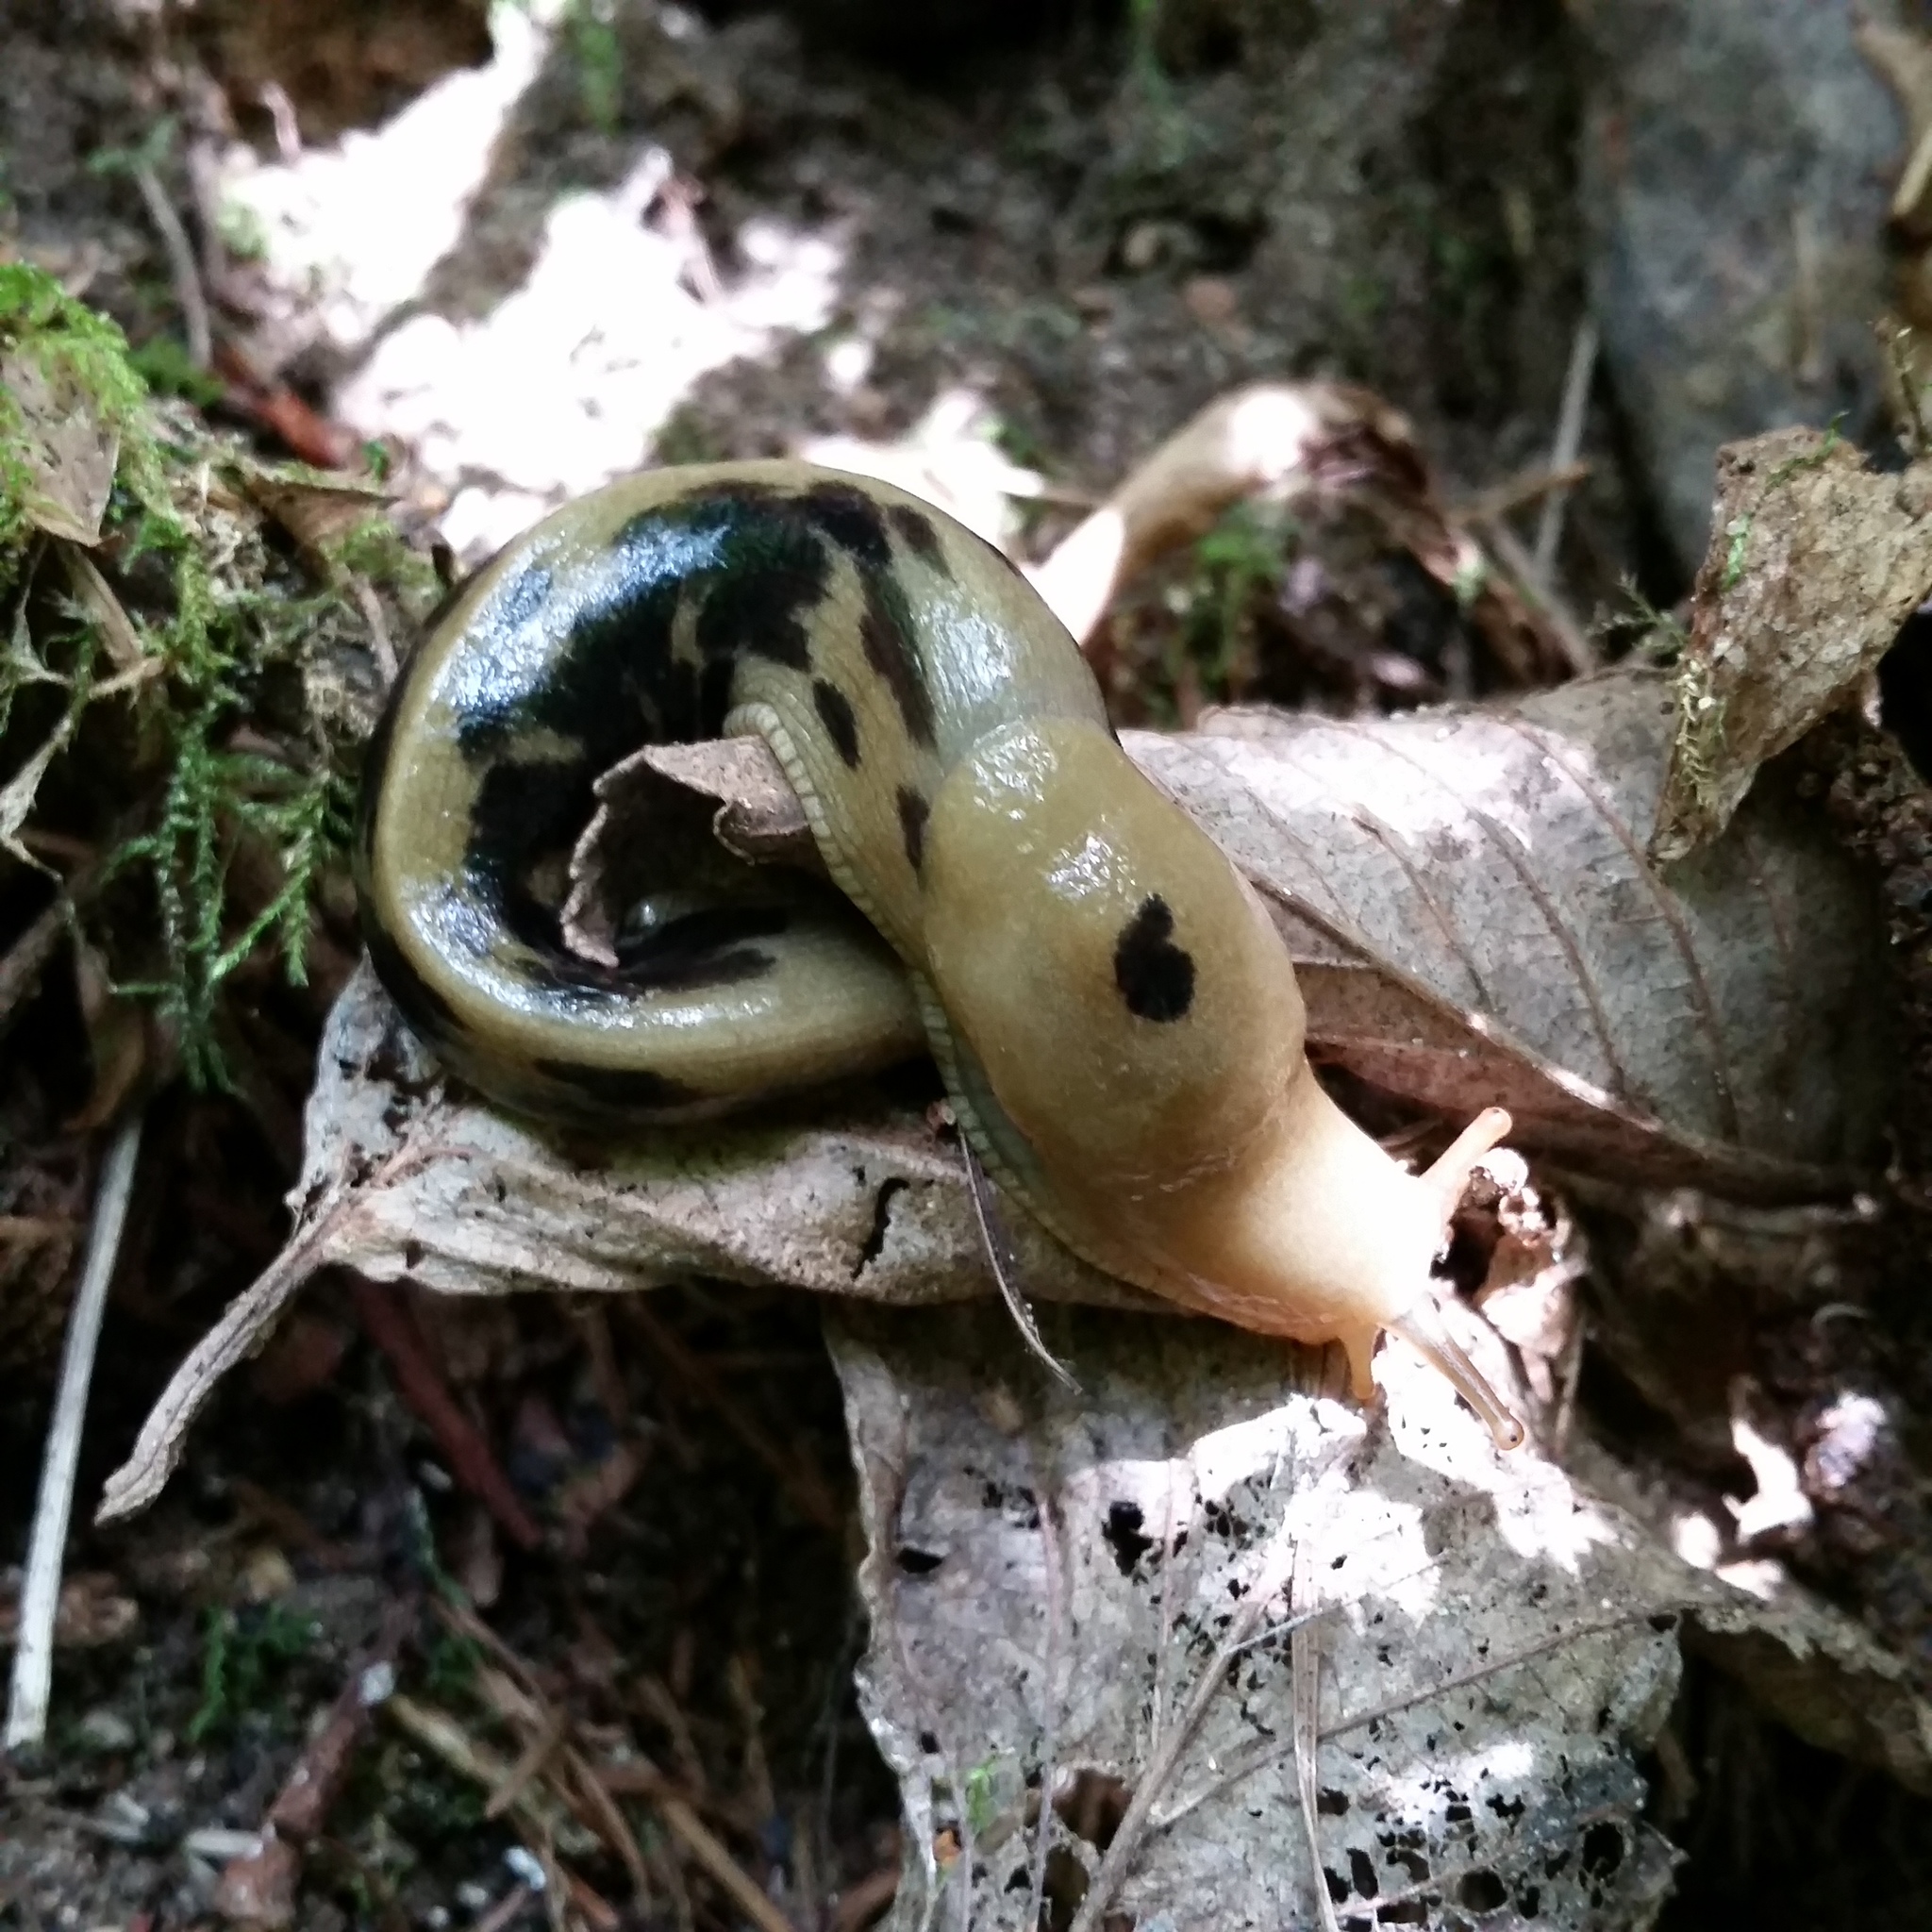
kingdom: Animalia
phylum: Mollusca
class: Gastropoda
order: Stylommatophora
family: Ariolimacidae
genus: Ariolimax
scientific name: Ariolimax columbianus
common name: Pacific banana slug
